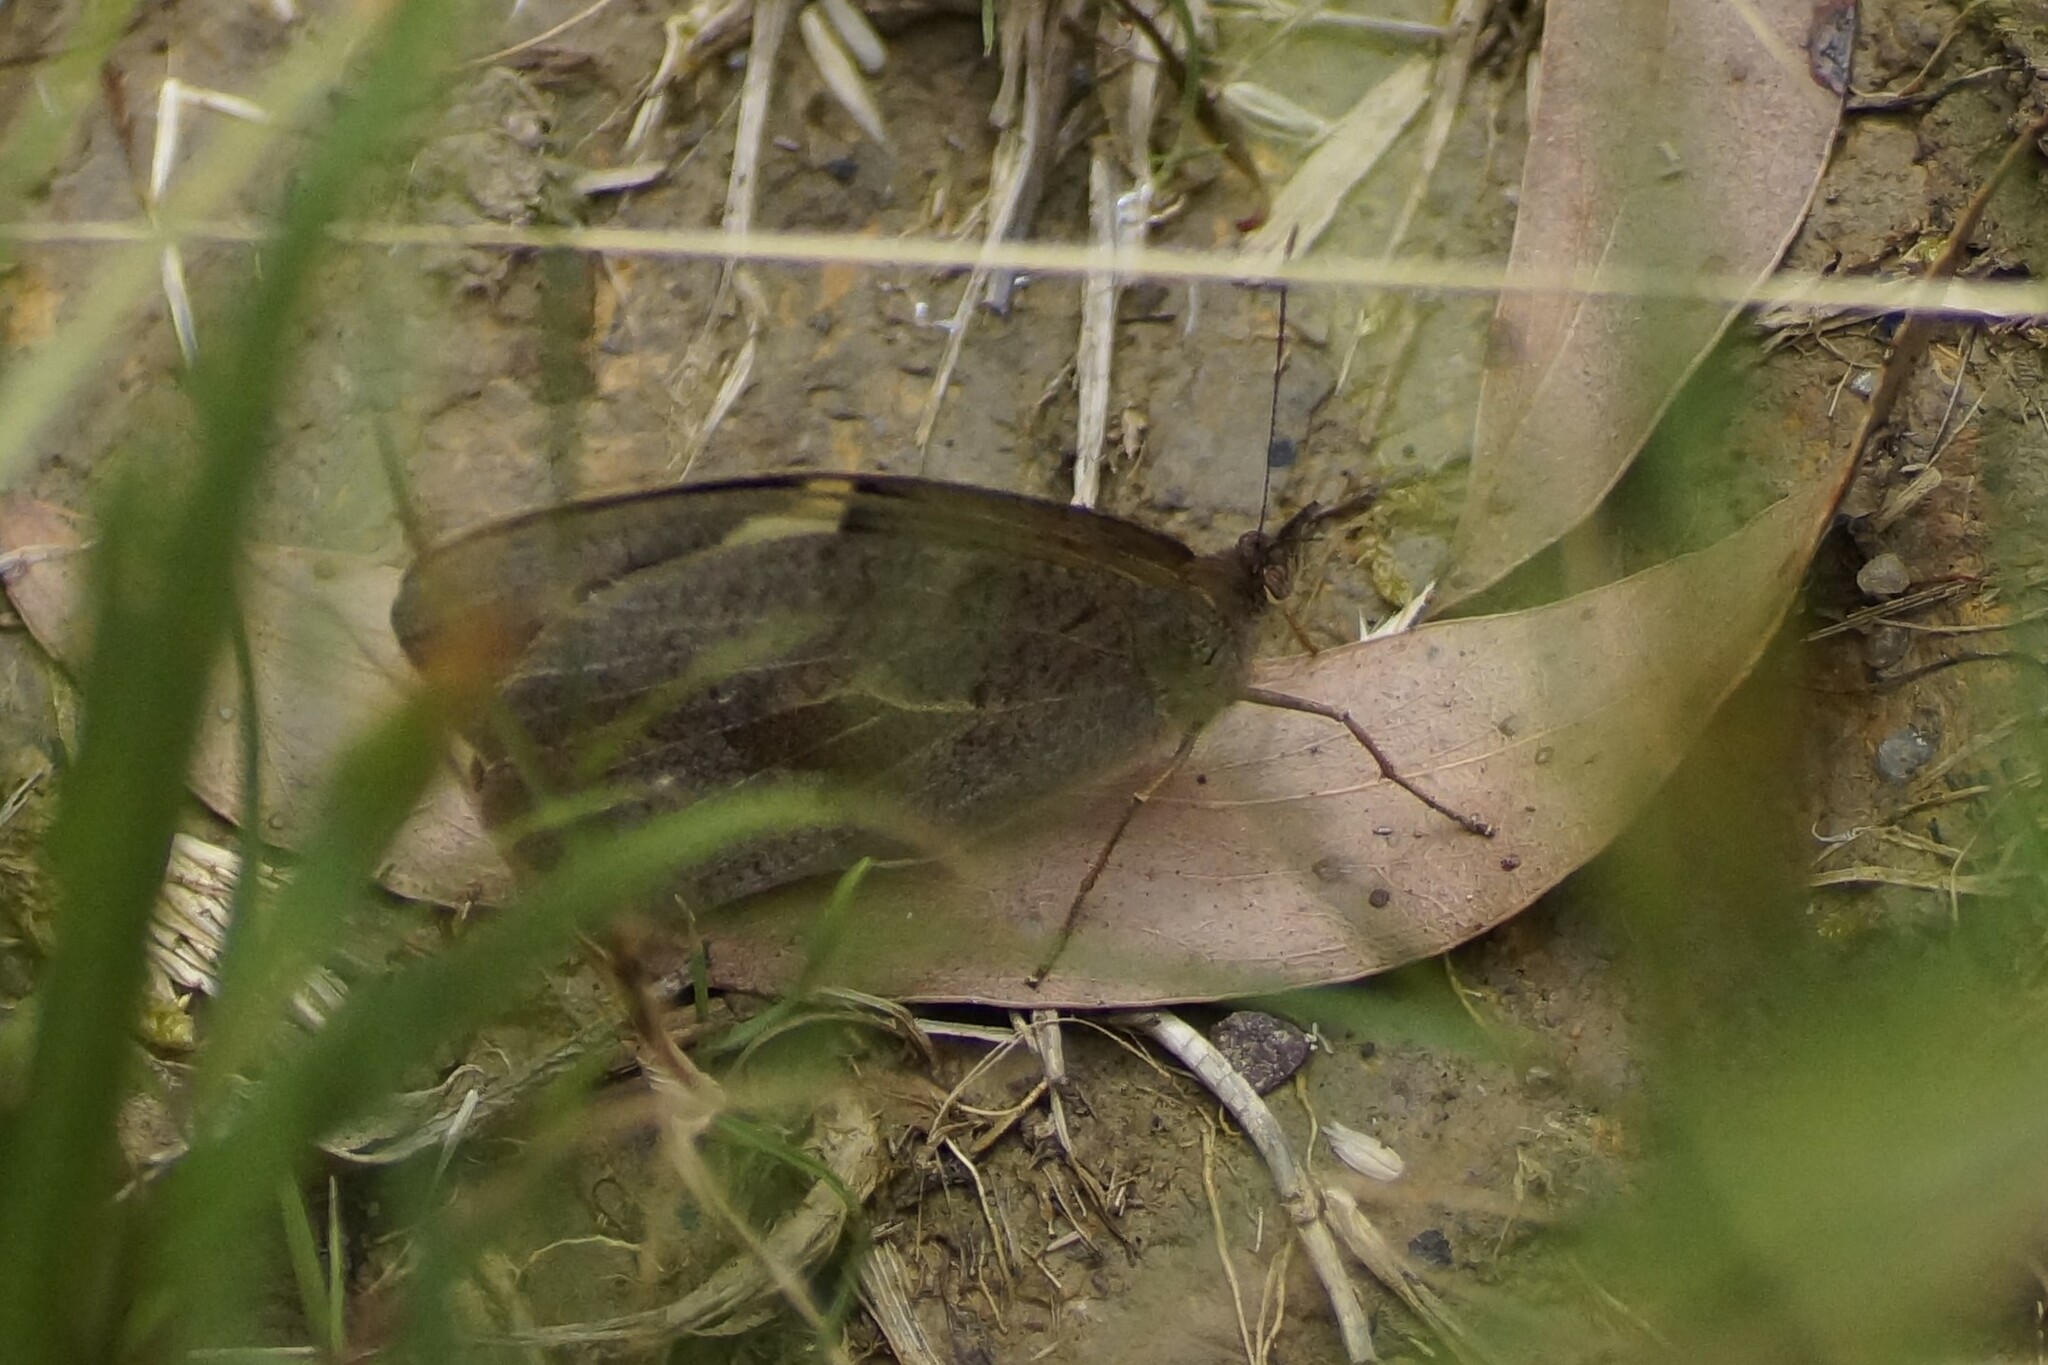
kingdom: Animalia
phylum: Arthropoda
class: Insecta
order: Lepidoptera
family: Nymphalidae
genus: Heteronympha
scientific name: Heteronympha merope
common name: Common brown
